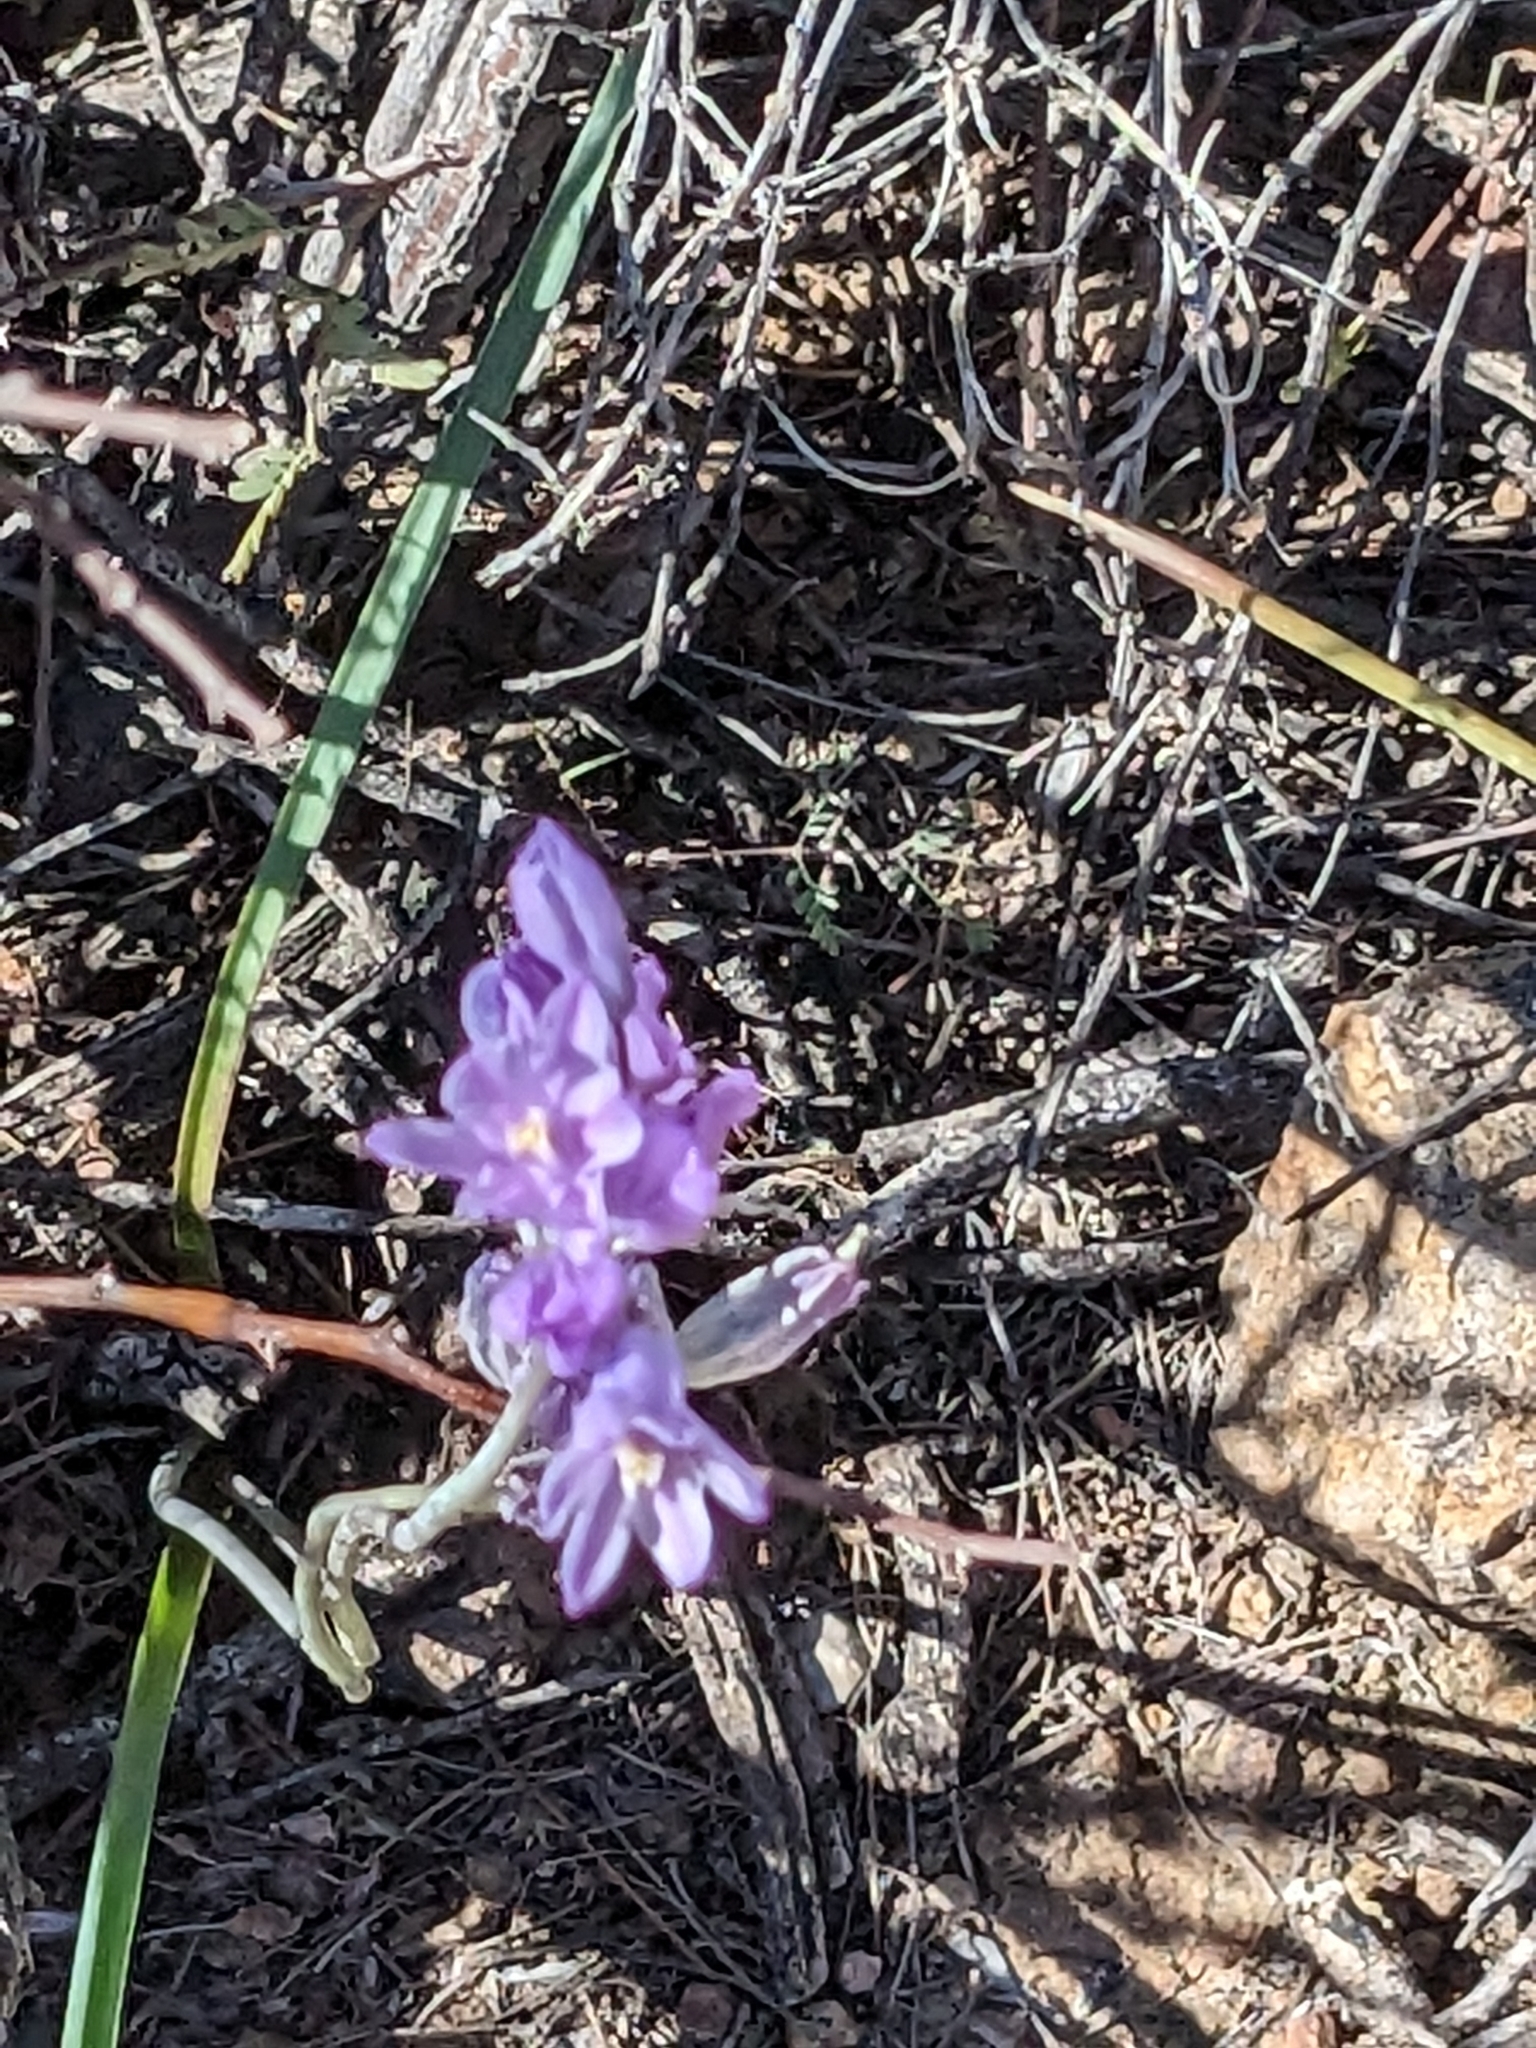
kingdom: Plantae
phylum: Tracheophyta
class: Liliopsida
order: Asparagales
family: Asparagaceae
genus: Dipterostemon
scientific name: Dipterostemon capitatus
